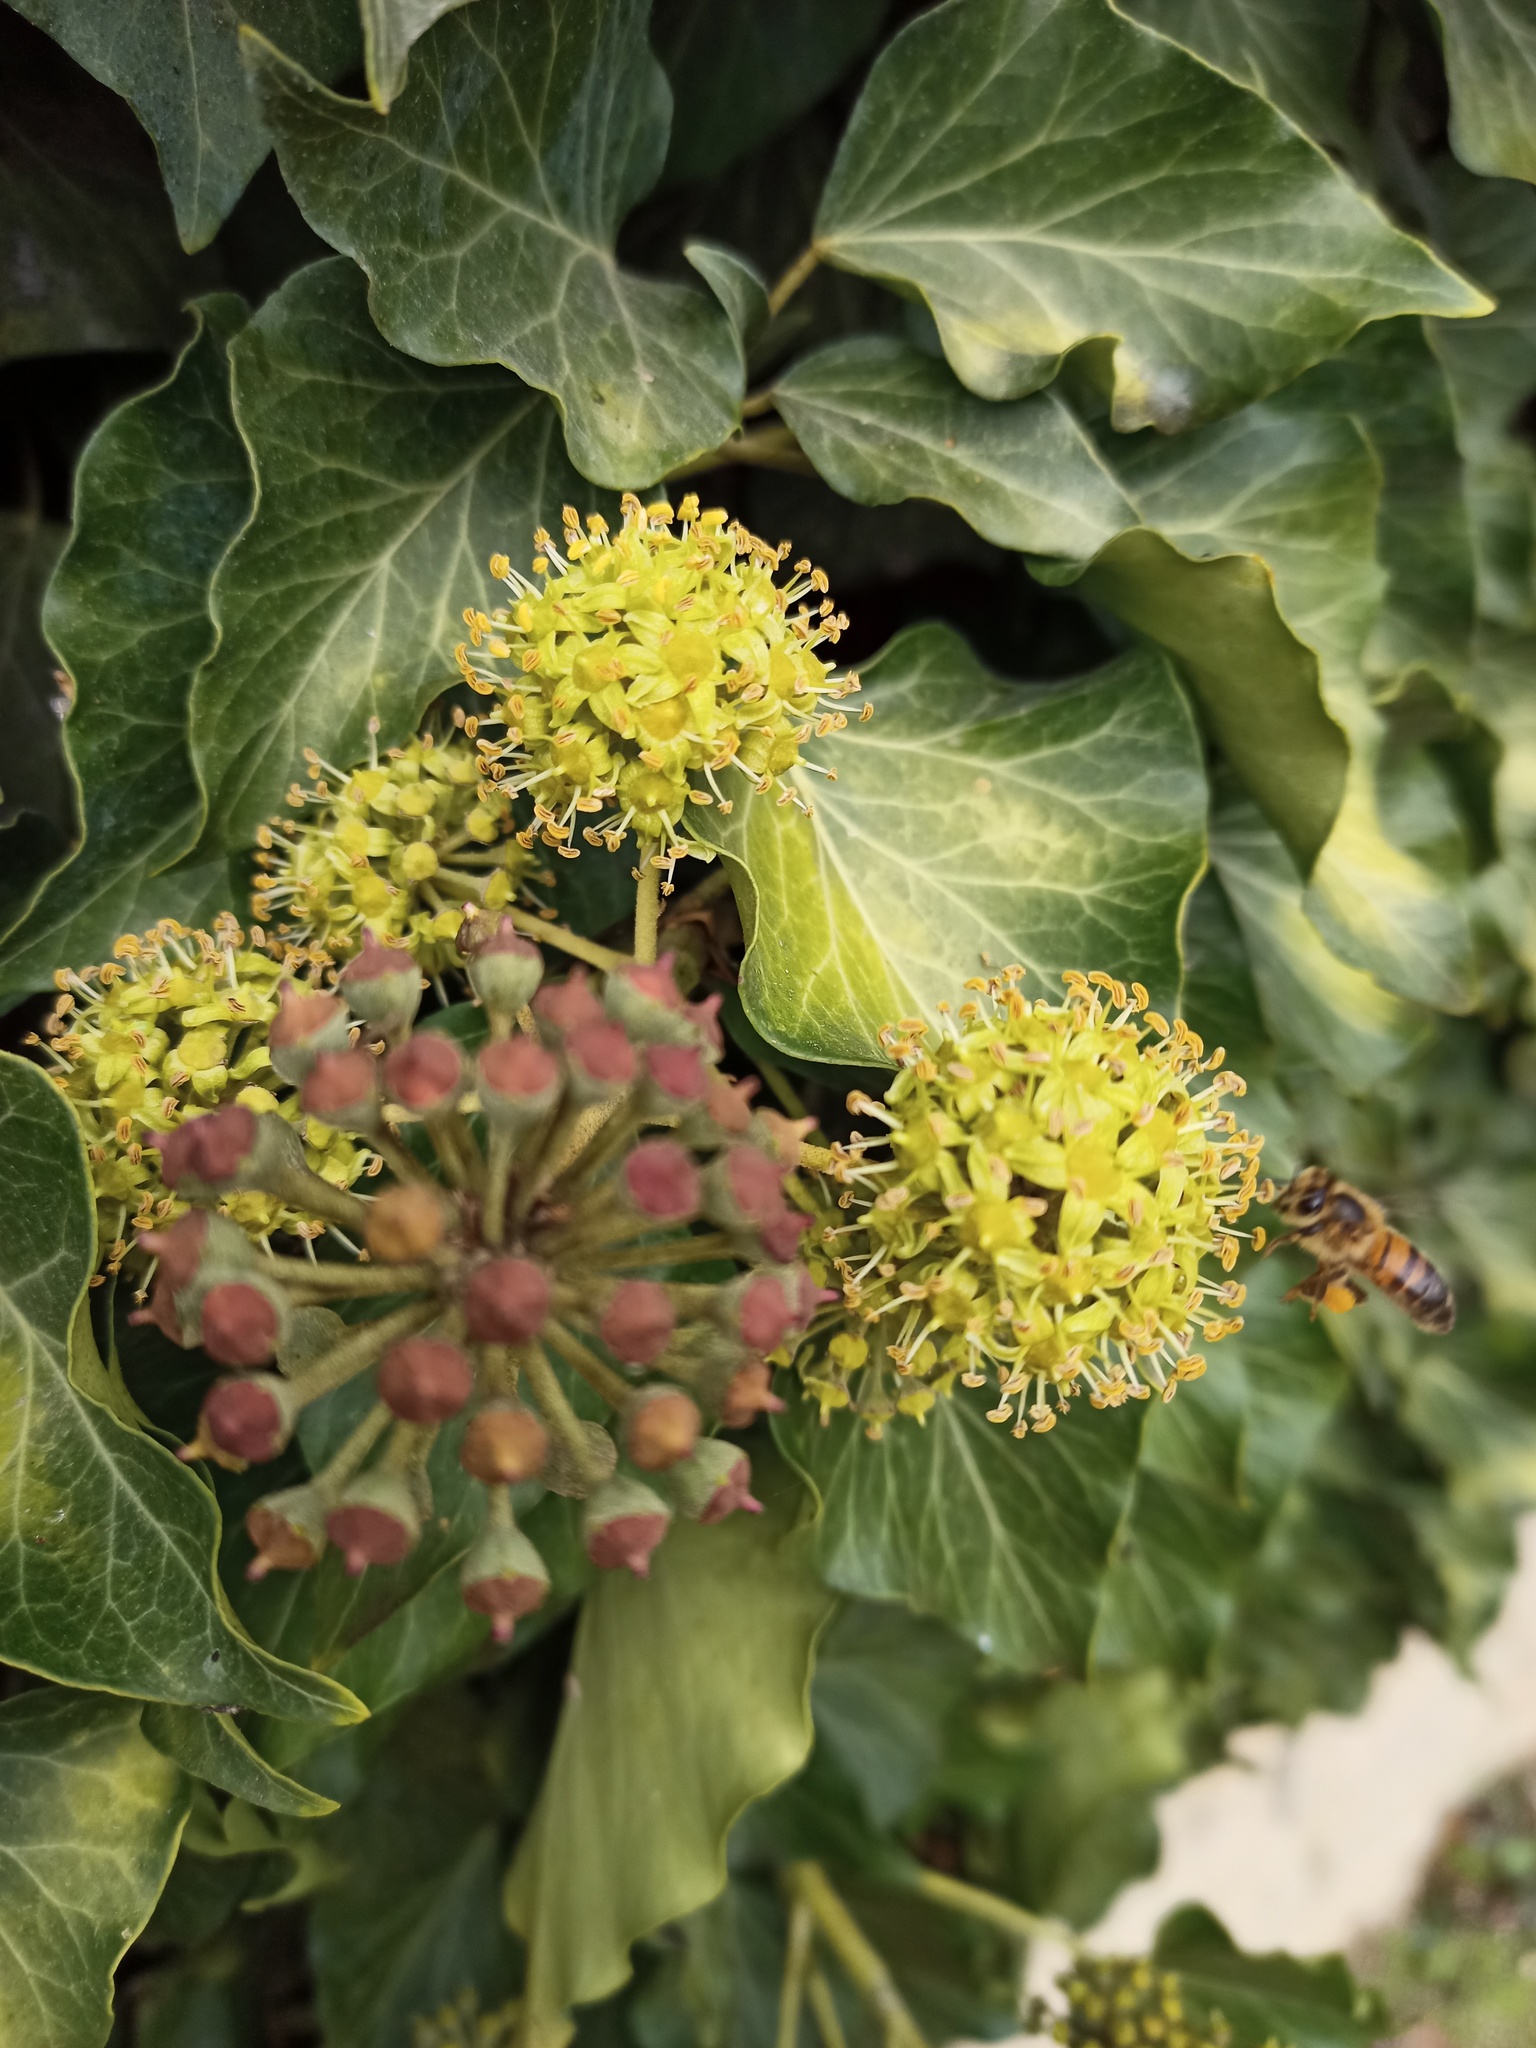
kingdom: Plantae
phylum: Tracheophyta
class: Magnoliopsida
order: Apiales
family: Araliaceae
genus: Hedera
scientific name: Hedera helix
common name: Ivy
